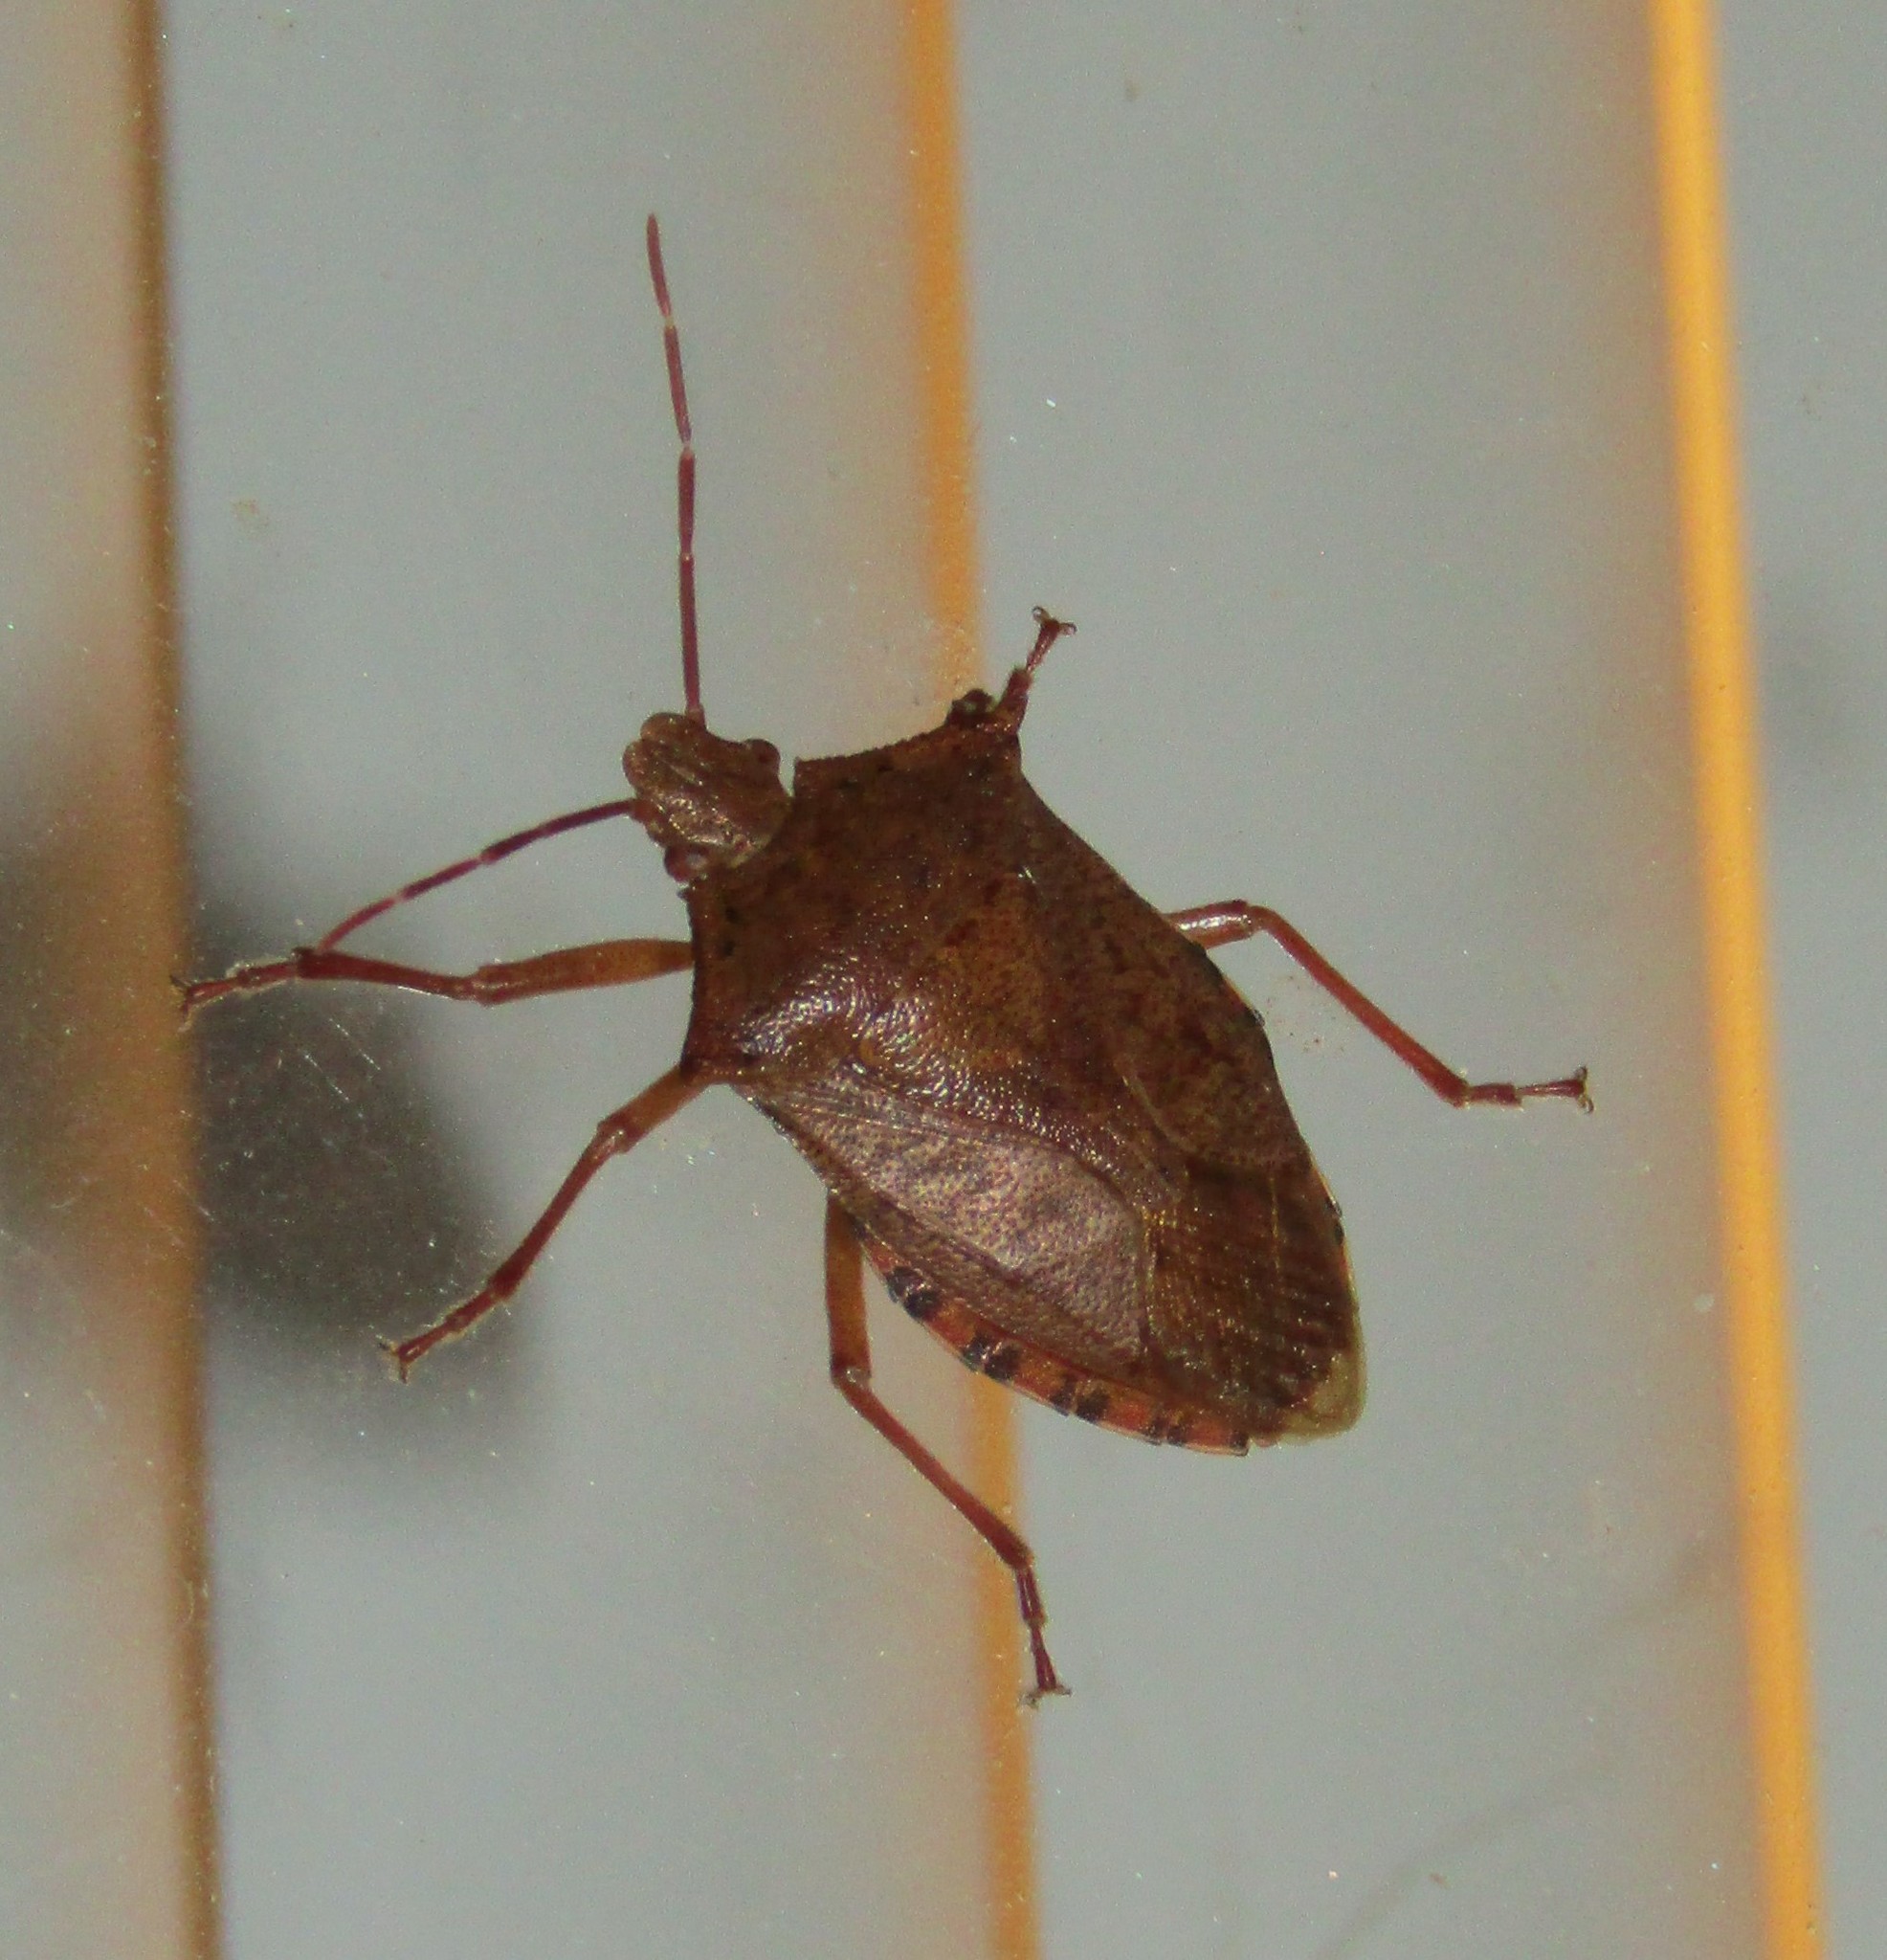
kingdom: Animalia
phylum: Arthropoda
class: Insecta
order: Hemiptera
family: Pentatomidae
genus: Apoecilus
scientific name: Apoecilus
